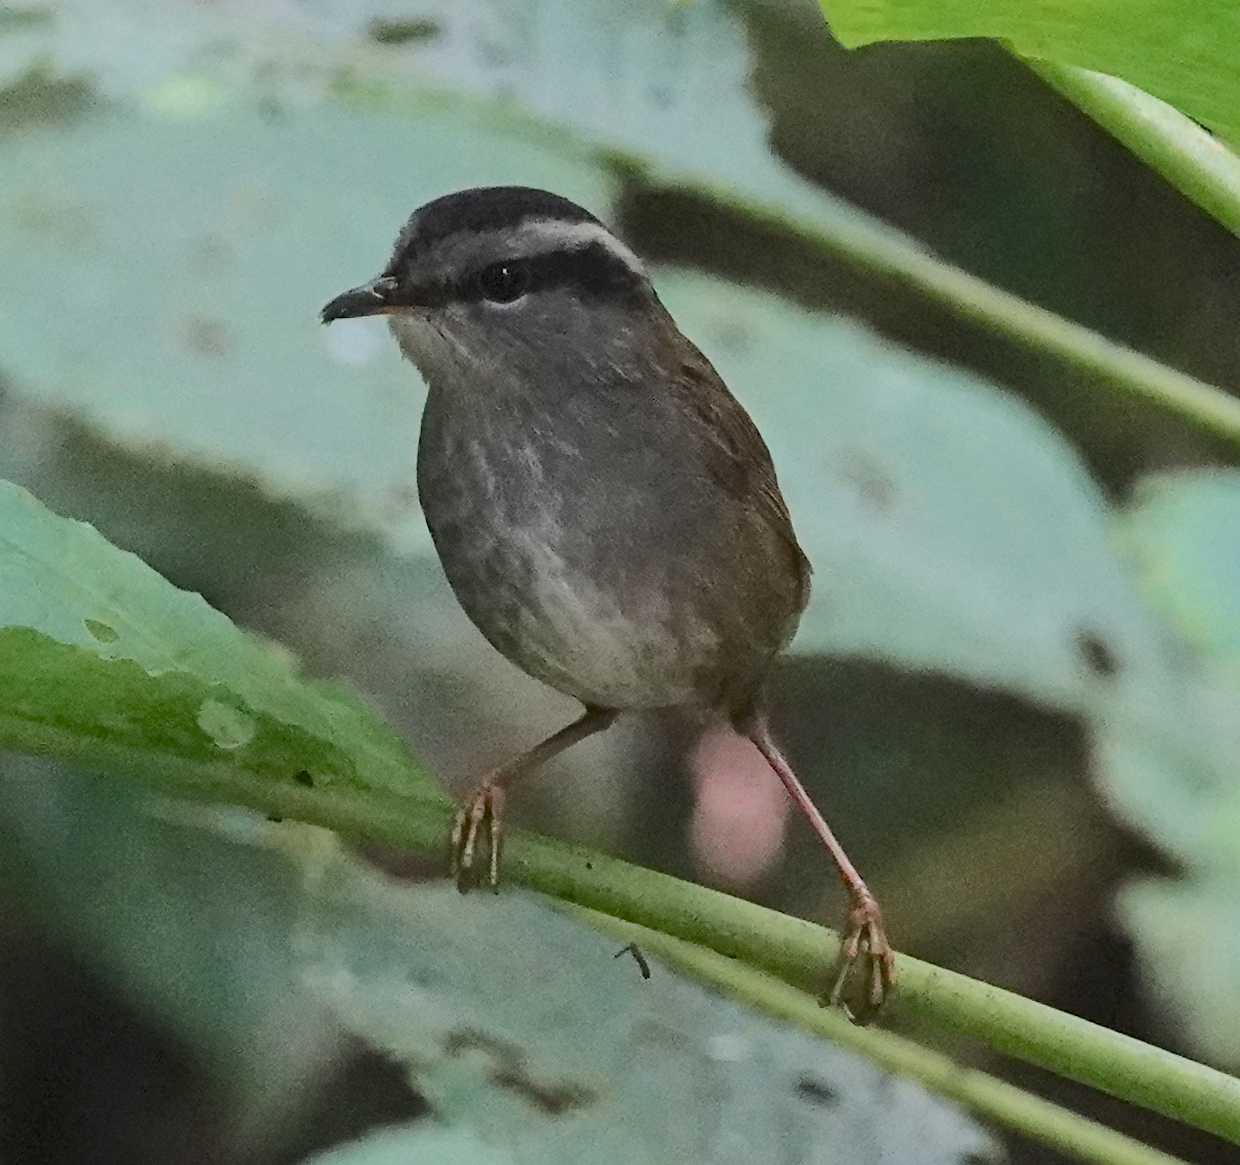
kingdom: Animalia
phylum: Chordata
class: Aves
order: Passeriformes
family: Cettiidae
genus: Tesia
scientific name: Tesia superciliaris
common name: Javan tesia
